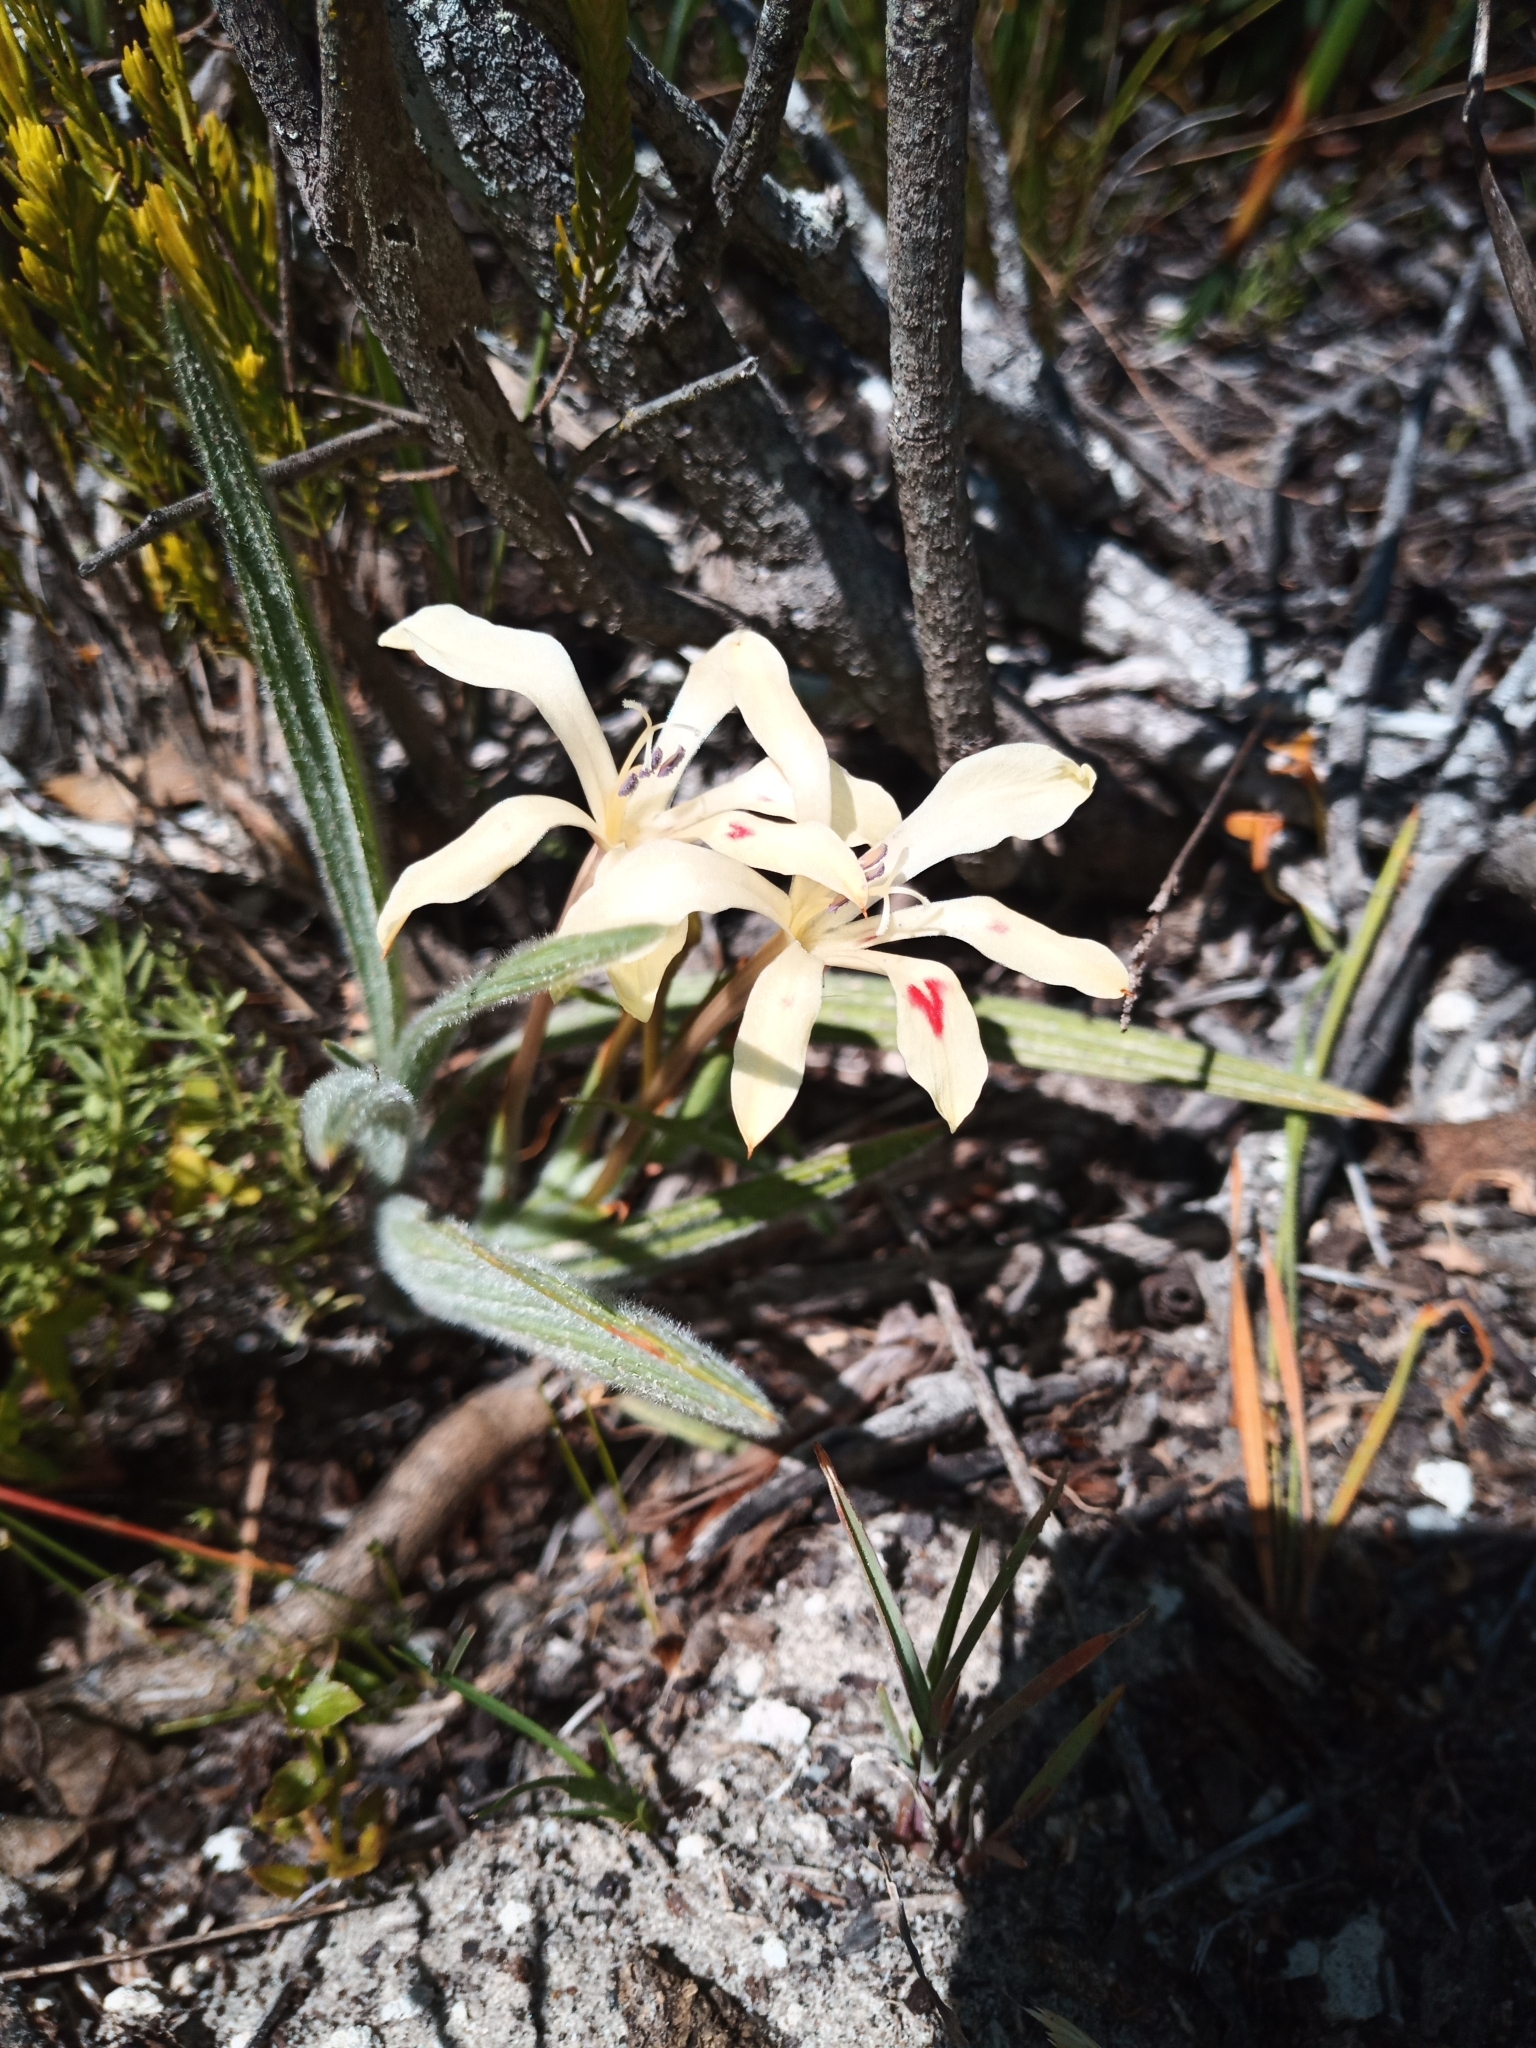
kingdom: Plantae
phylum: Tracheophyta
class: Liliopsida
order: Asparagales
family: Iridaceae
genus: Babiana
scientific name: Babiana tubiflora
